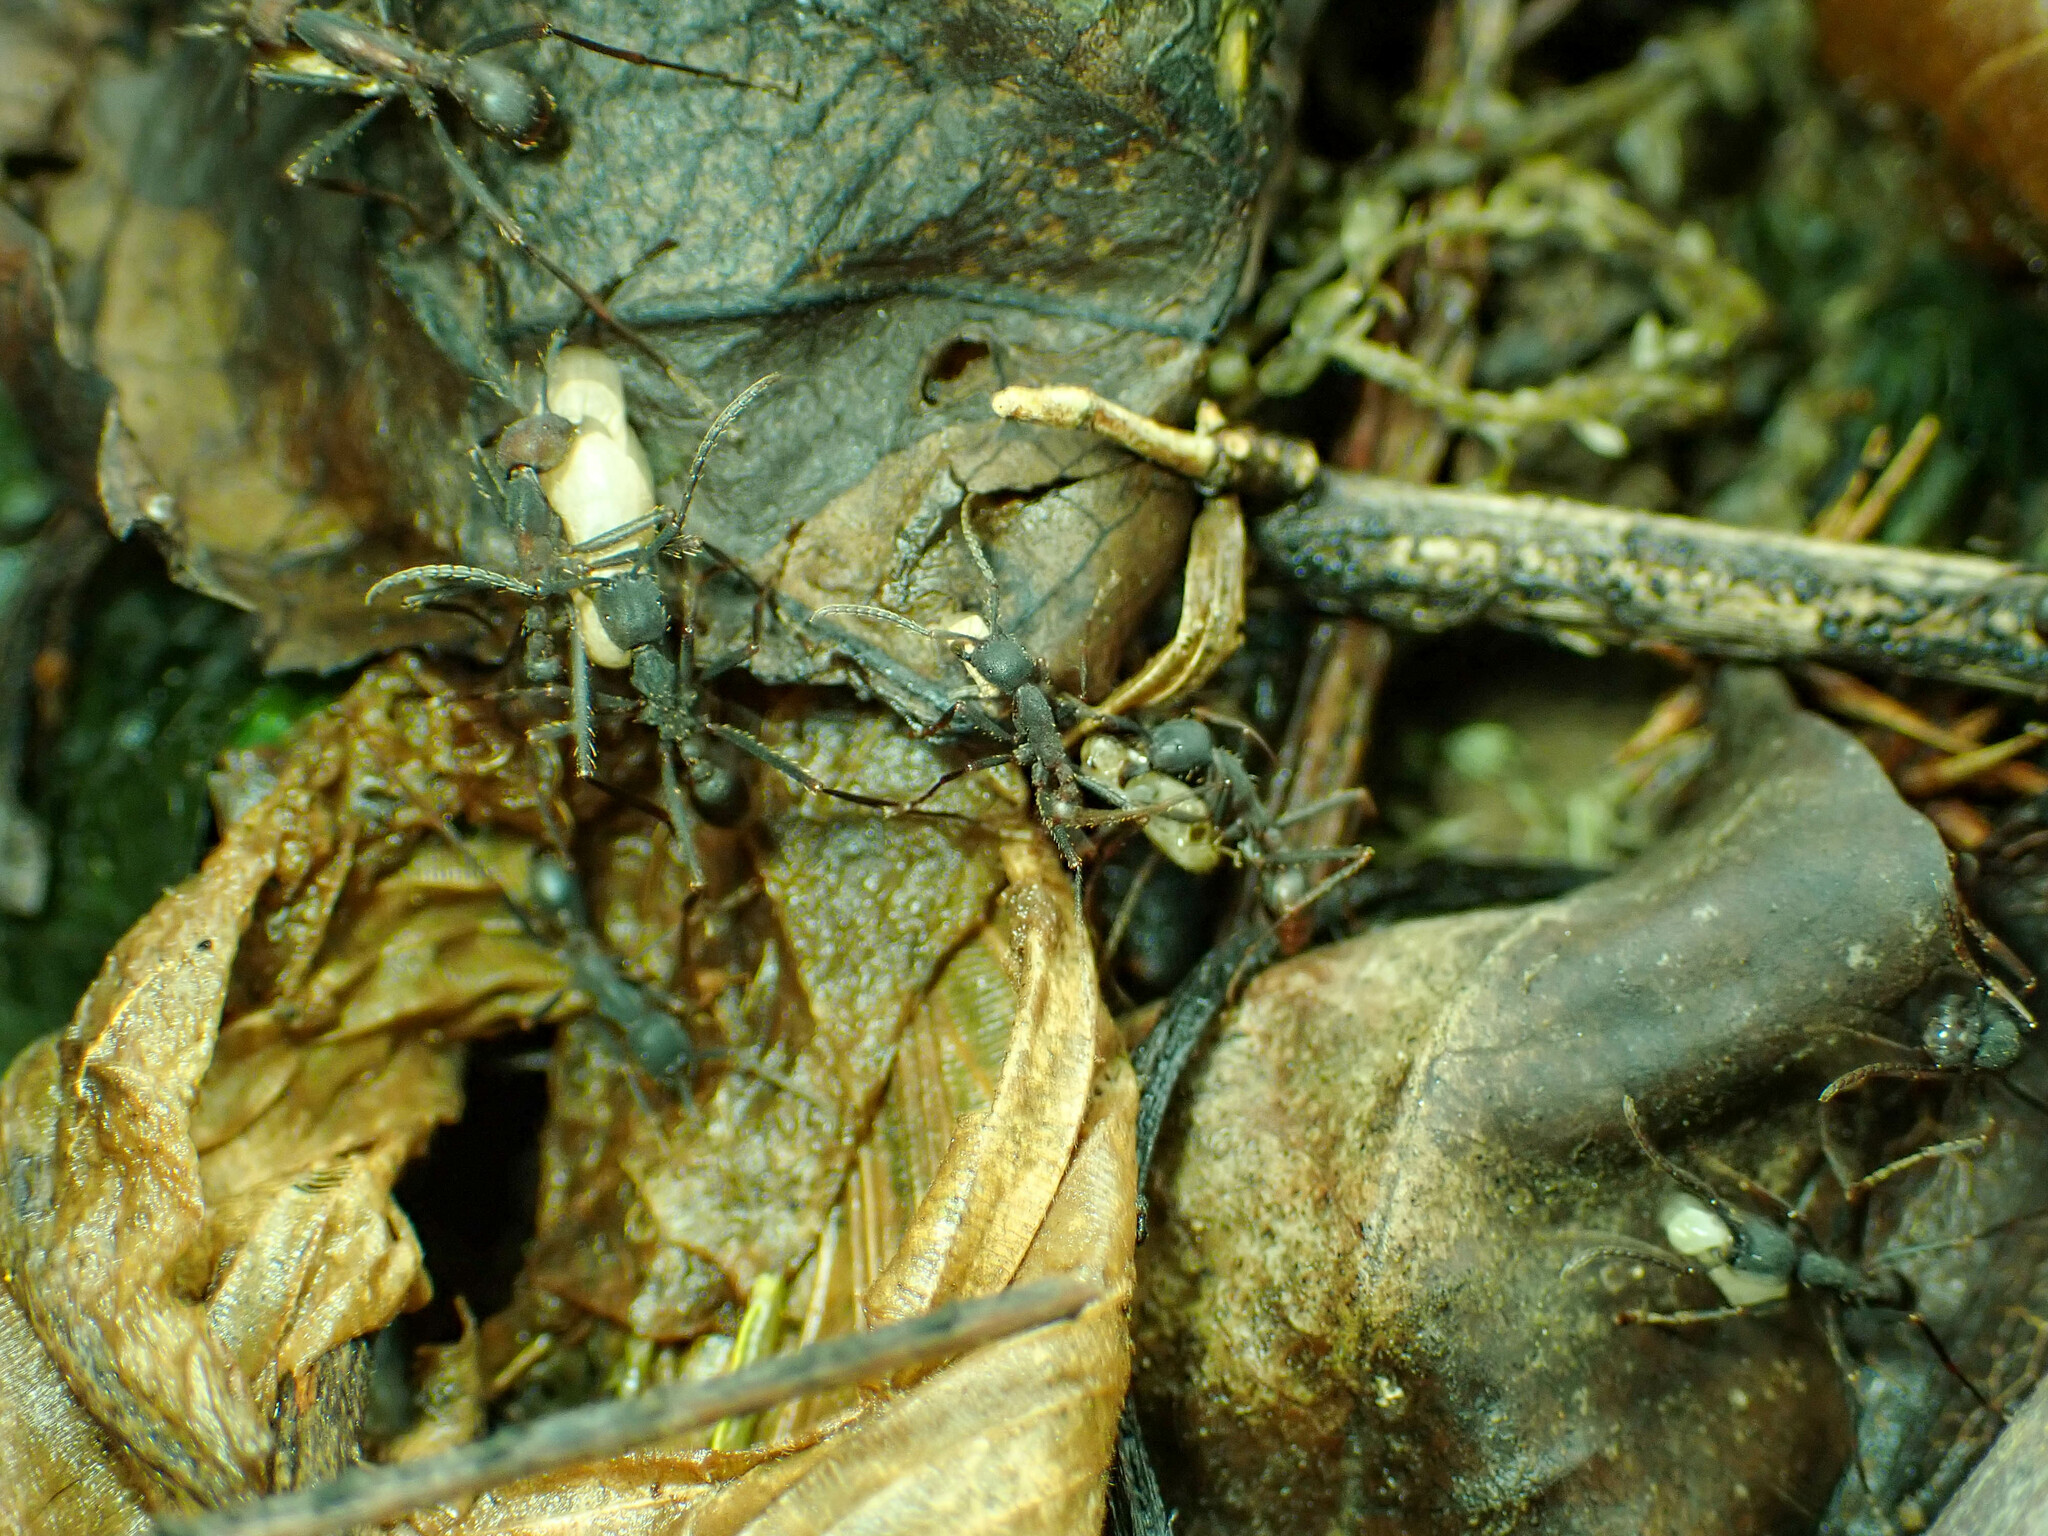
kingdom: Animalia
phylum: Arthropoda
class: Insecta
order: Hymenoptera
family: Formicidae
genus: Eciton
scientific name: Eciton burchellii
